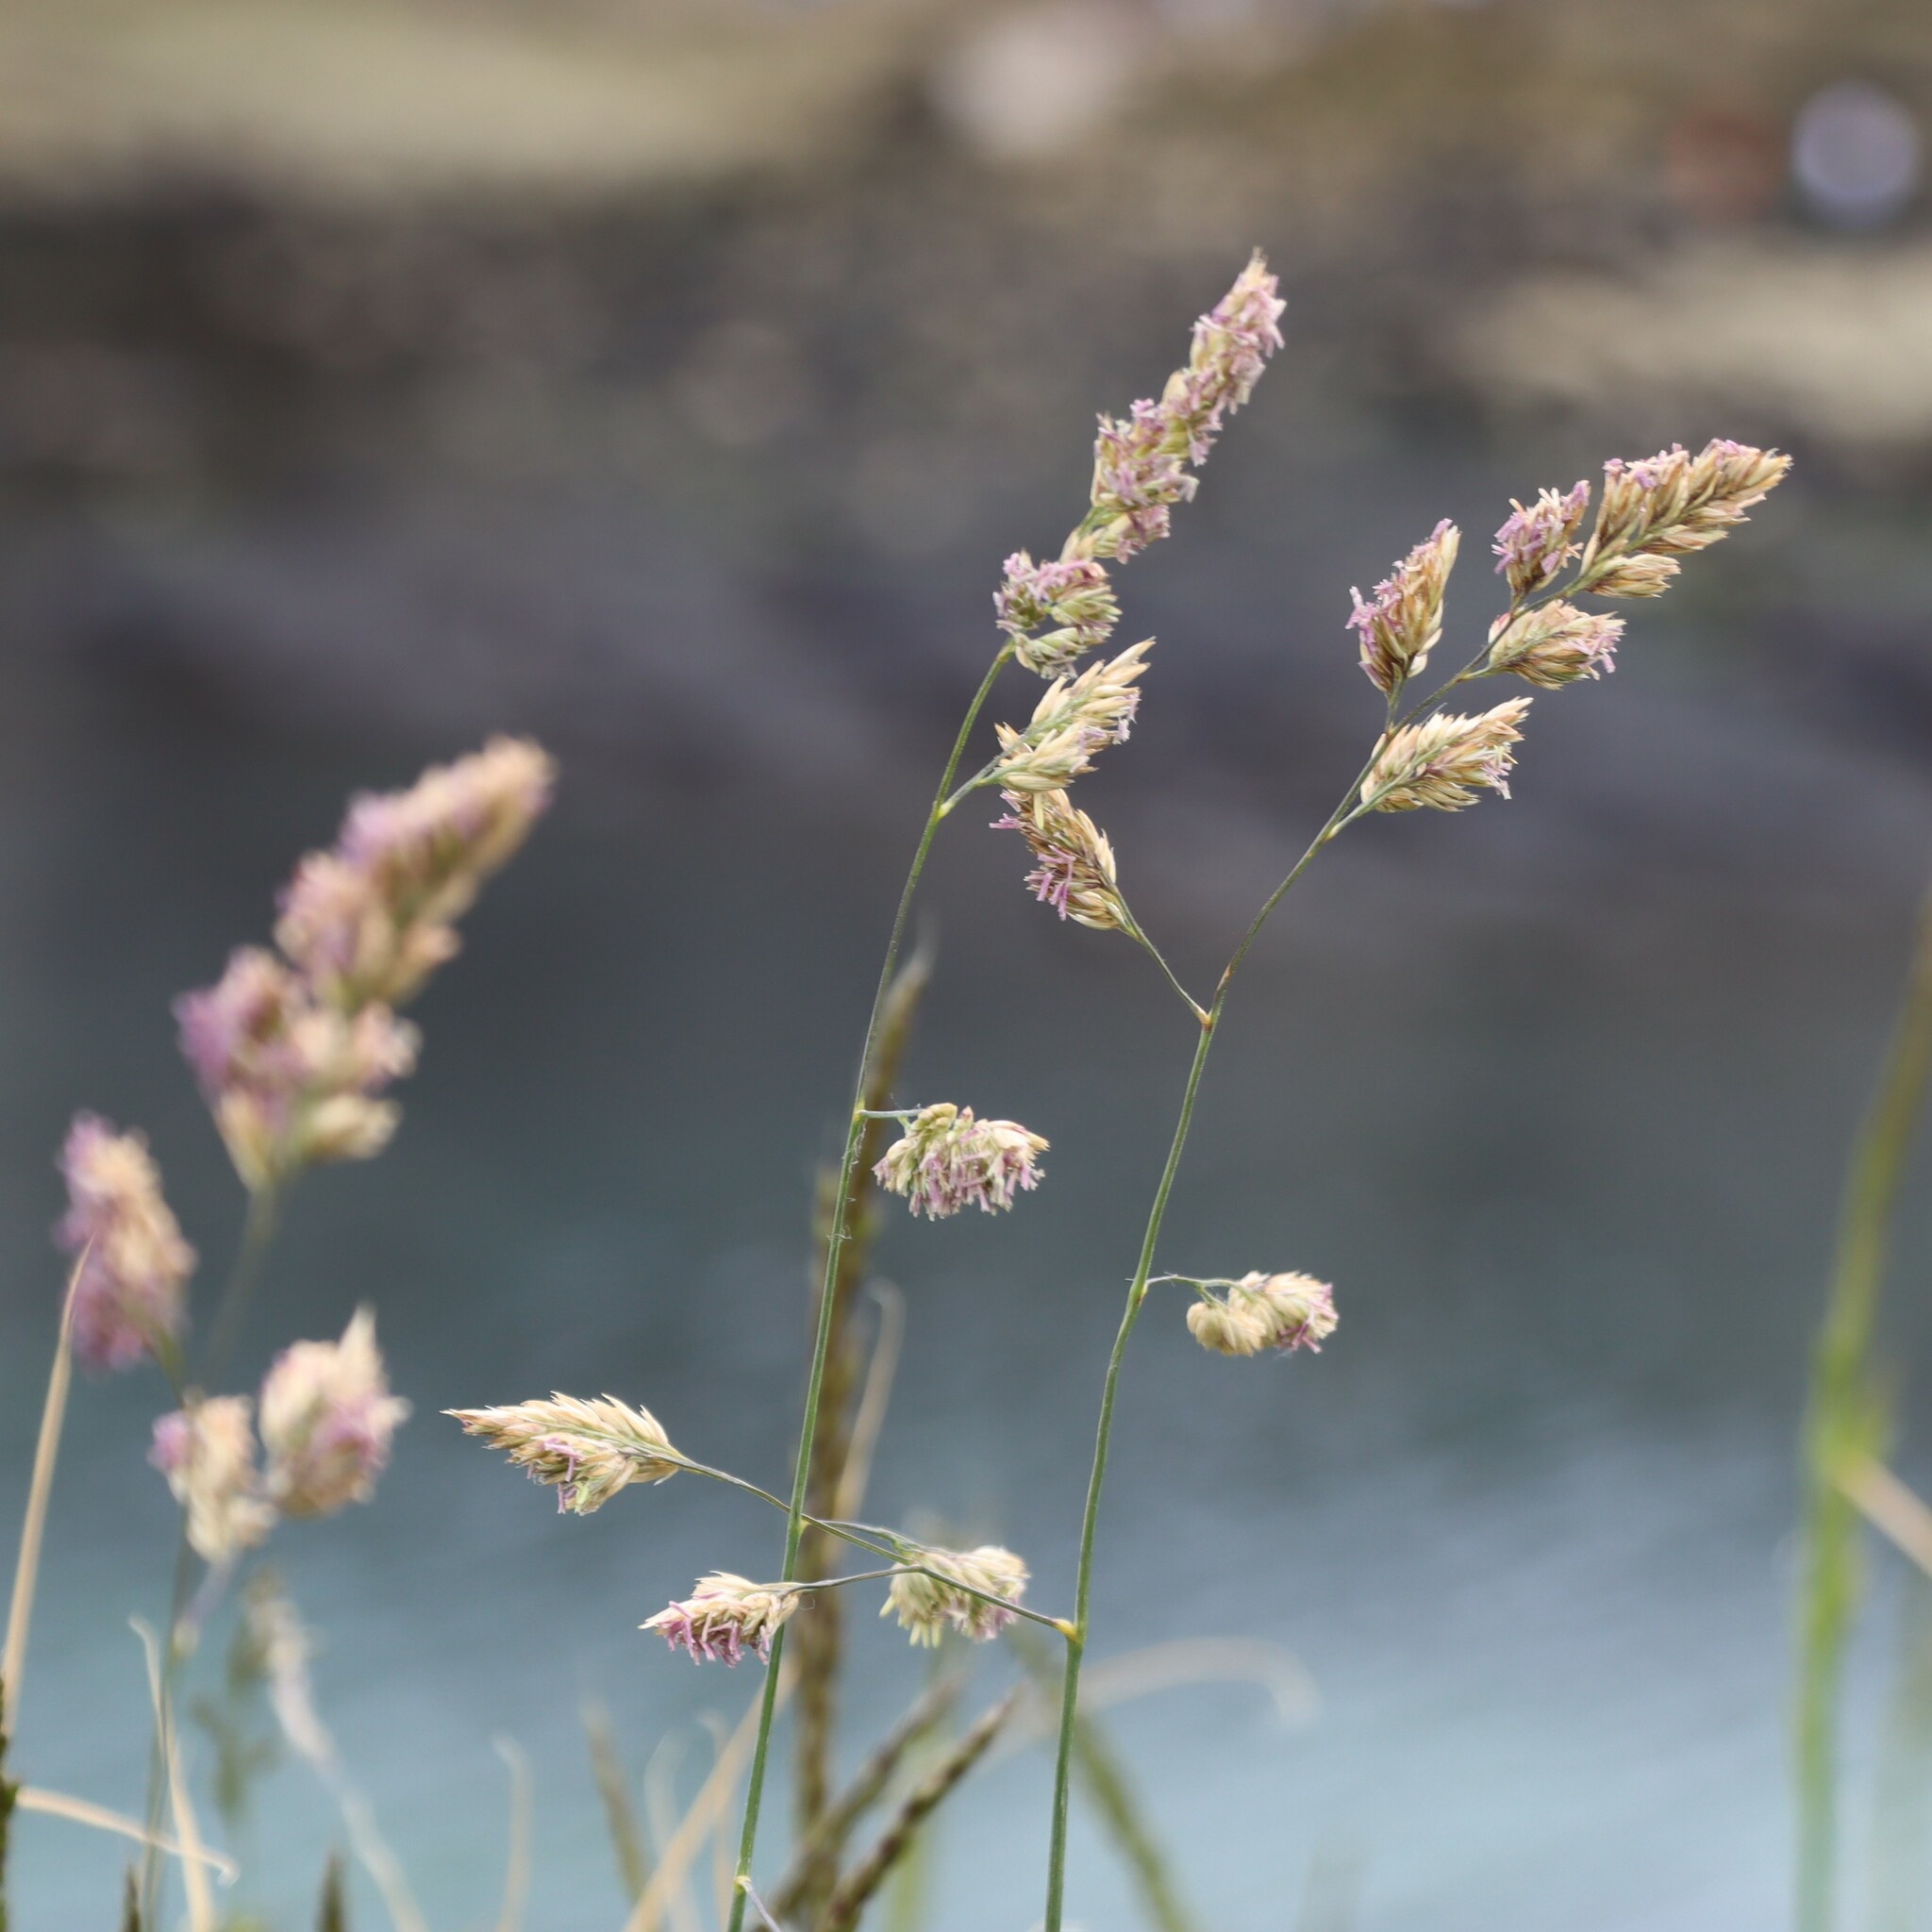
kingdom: Plantae
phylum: Tracheophyta
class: Liliopsida
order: Poales
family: Poaceae
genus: Dactylis
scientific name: Dactylis glomerata
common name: Orchardgrass
